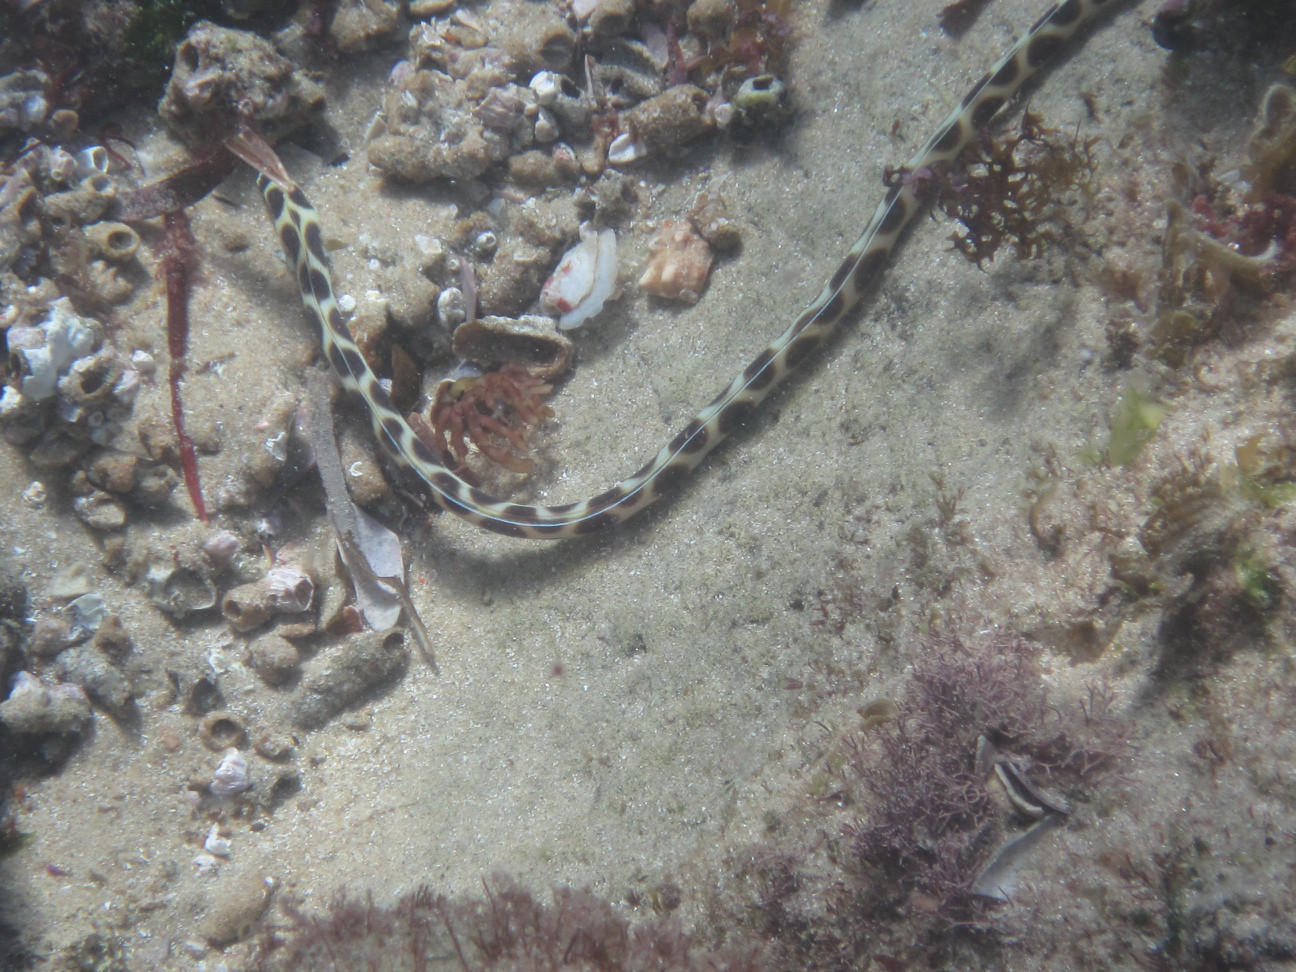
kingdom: Animalia
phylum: Chordata
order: Anguilliformes
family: Ophichthidae
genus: Myrichthys
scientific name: Myrichthys maculosus
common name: Spotted snake eel
